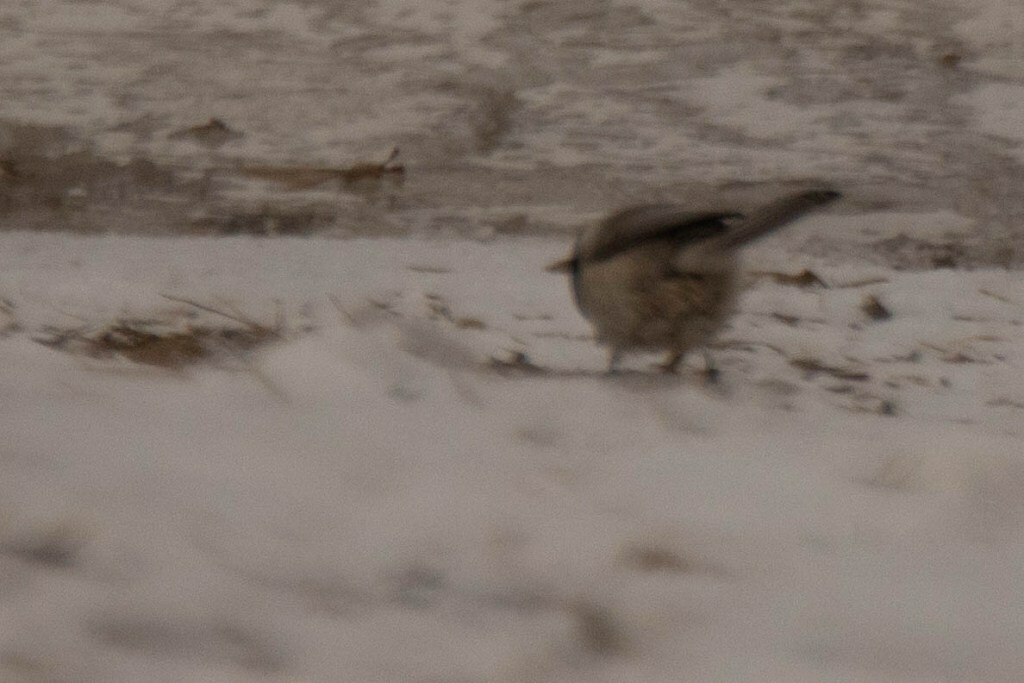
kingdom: Animalia
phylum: Chordata
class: Aves
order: Passeriformes
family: Paridae
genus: Poecile
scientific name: Poecile palustris
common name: Marsh tit
